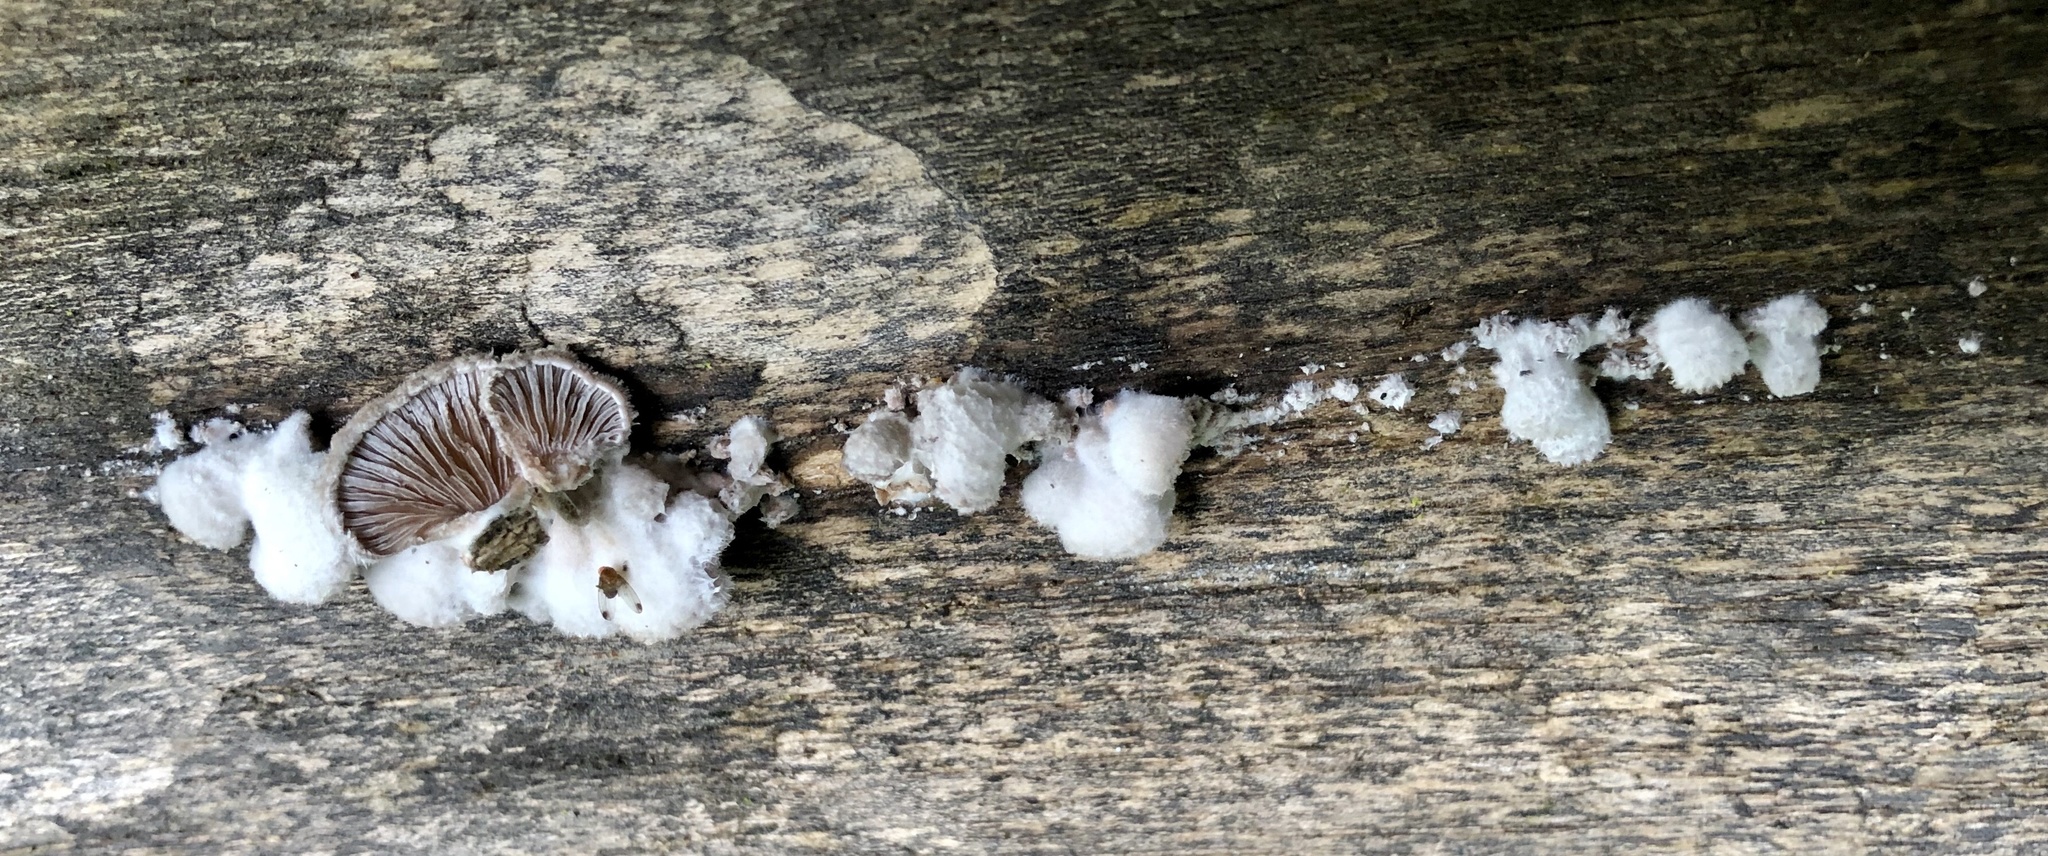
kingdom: Fungi
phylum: Basidiomycota
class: Agaricomycetes
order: Agaricales
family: Schizophyllaceae
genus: Schizophyllum
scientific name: Schizophyllum commune
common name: Common porecrust
